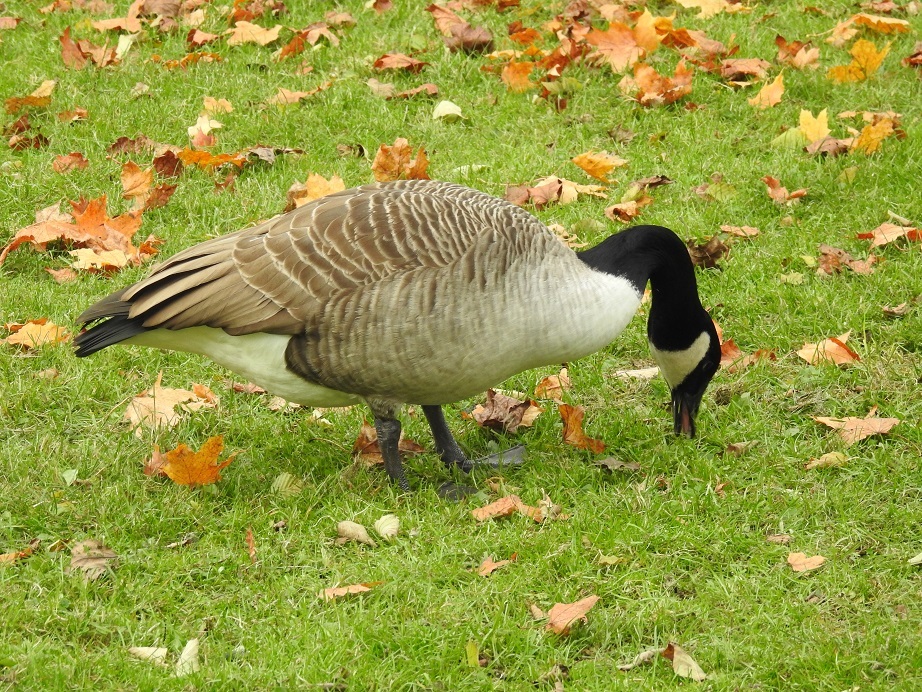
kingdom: Animalia
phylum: Chordata
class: Aves
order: Anseriformes
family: Anatidae
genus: Branta
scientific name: Branta canadensis
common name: Canada goose
